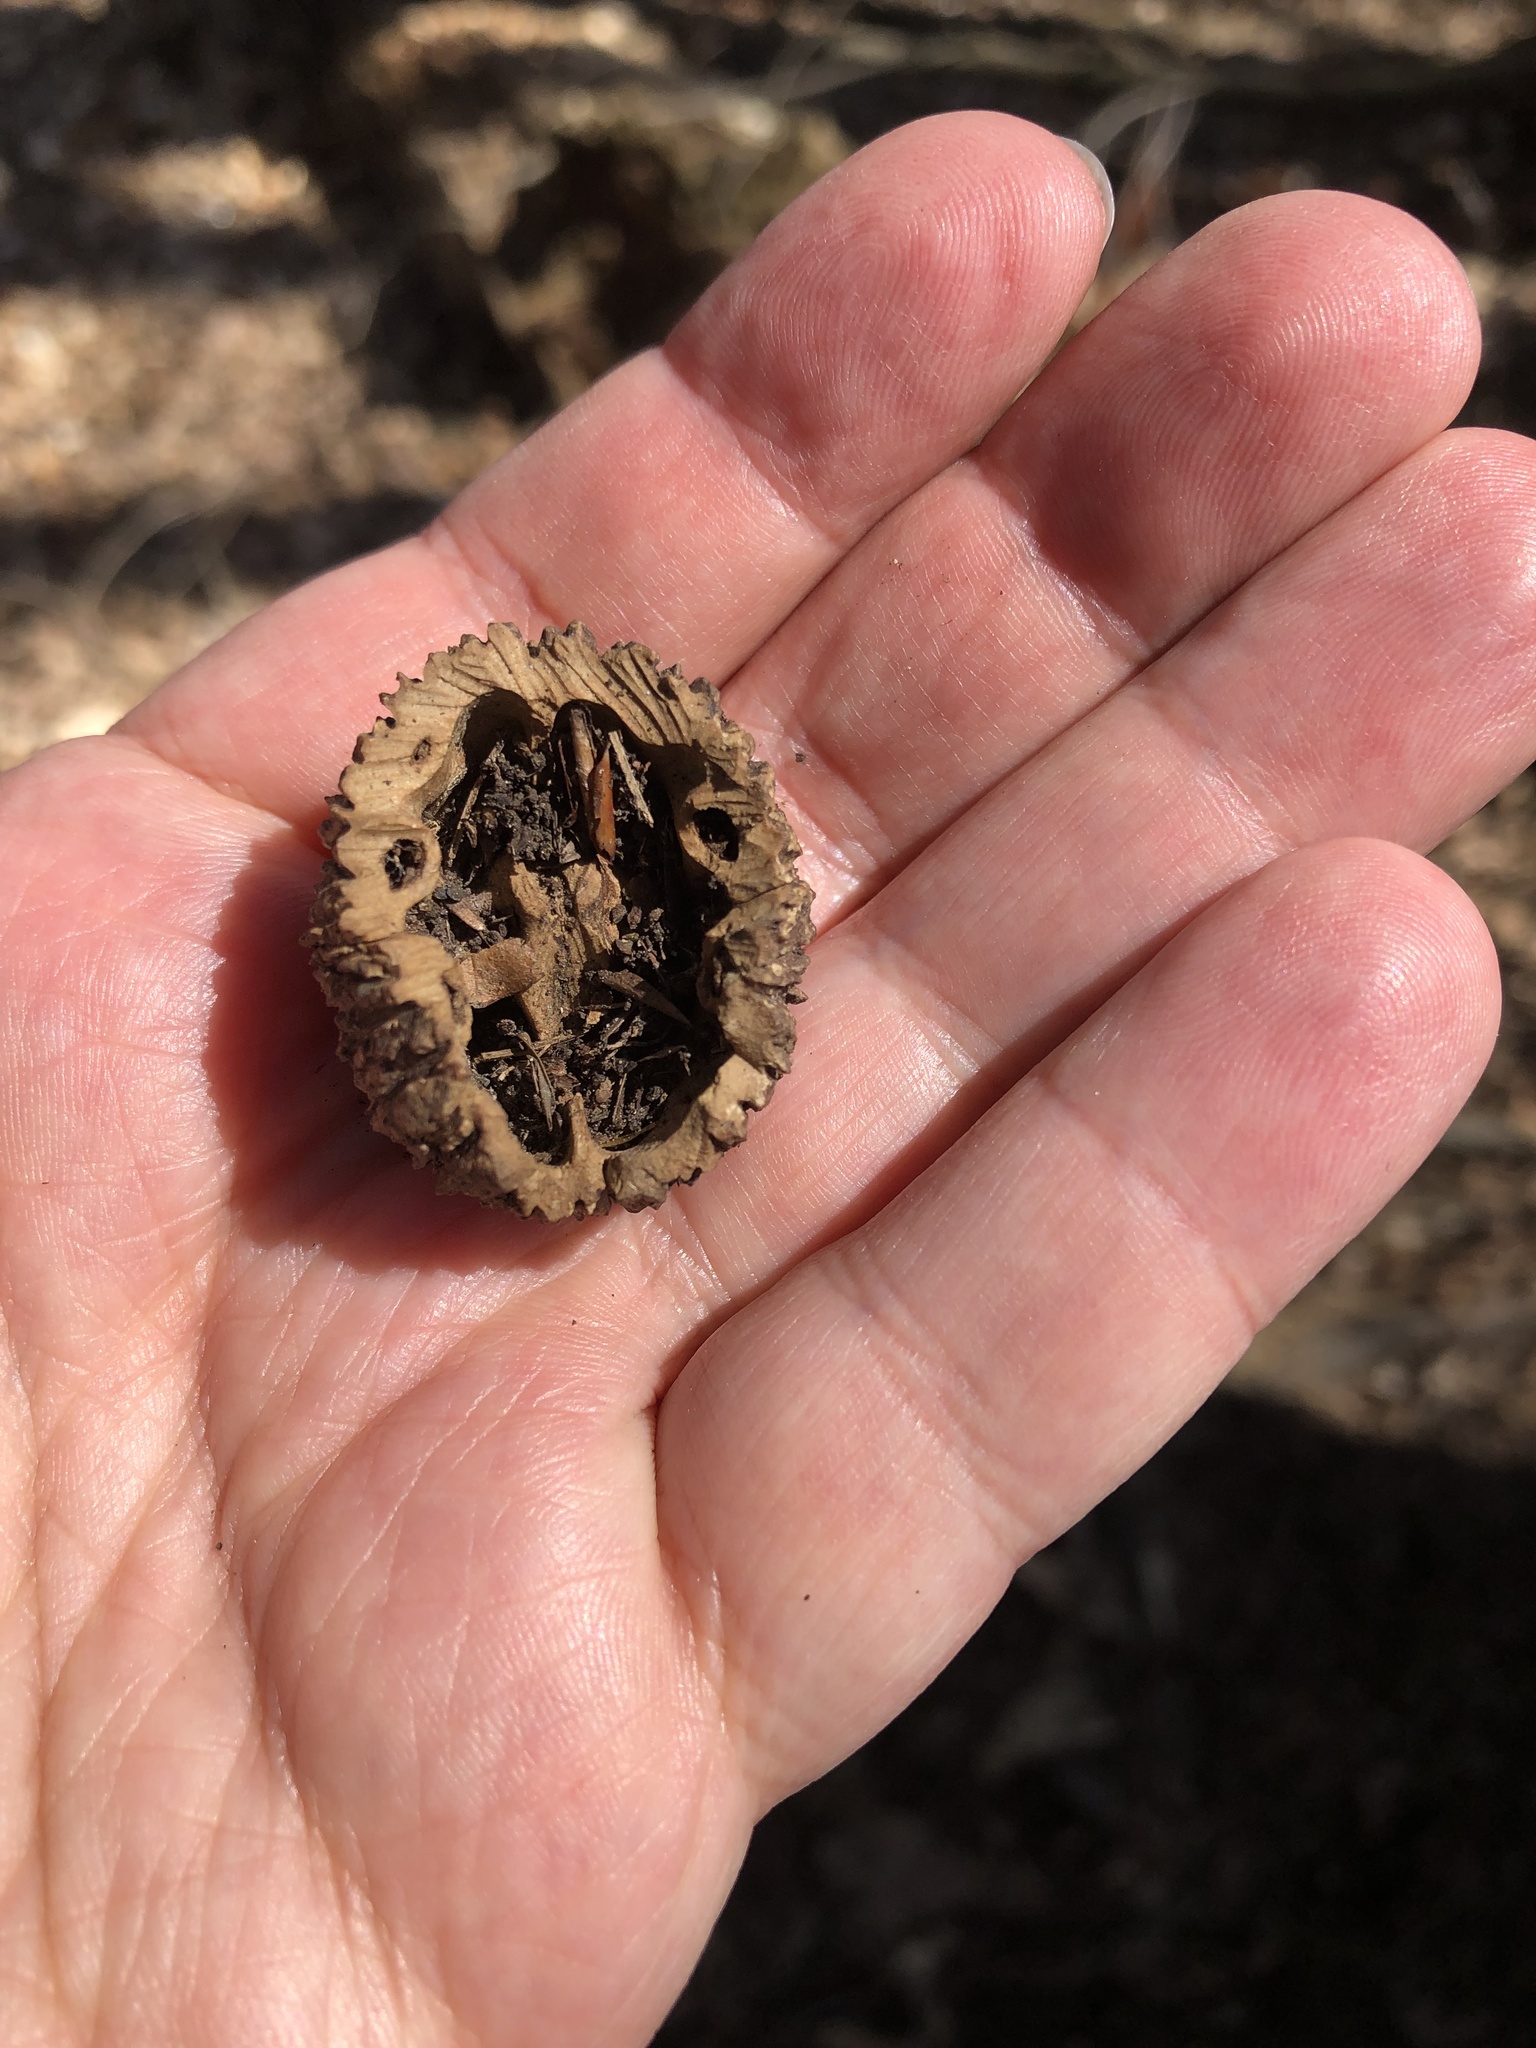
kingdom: Plantae
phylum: Tracheophyta
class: Magnoliopsida
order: Fagales
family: Juglandaceae
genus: Juglans
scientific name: Juglans nigra
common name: Black walnut
